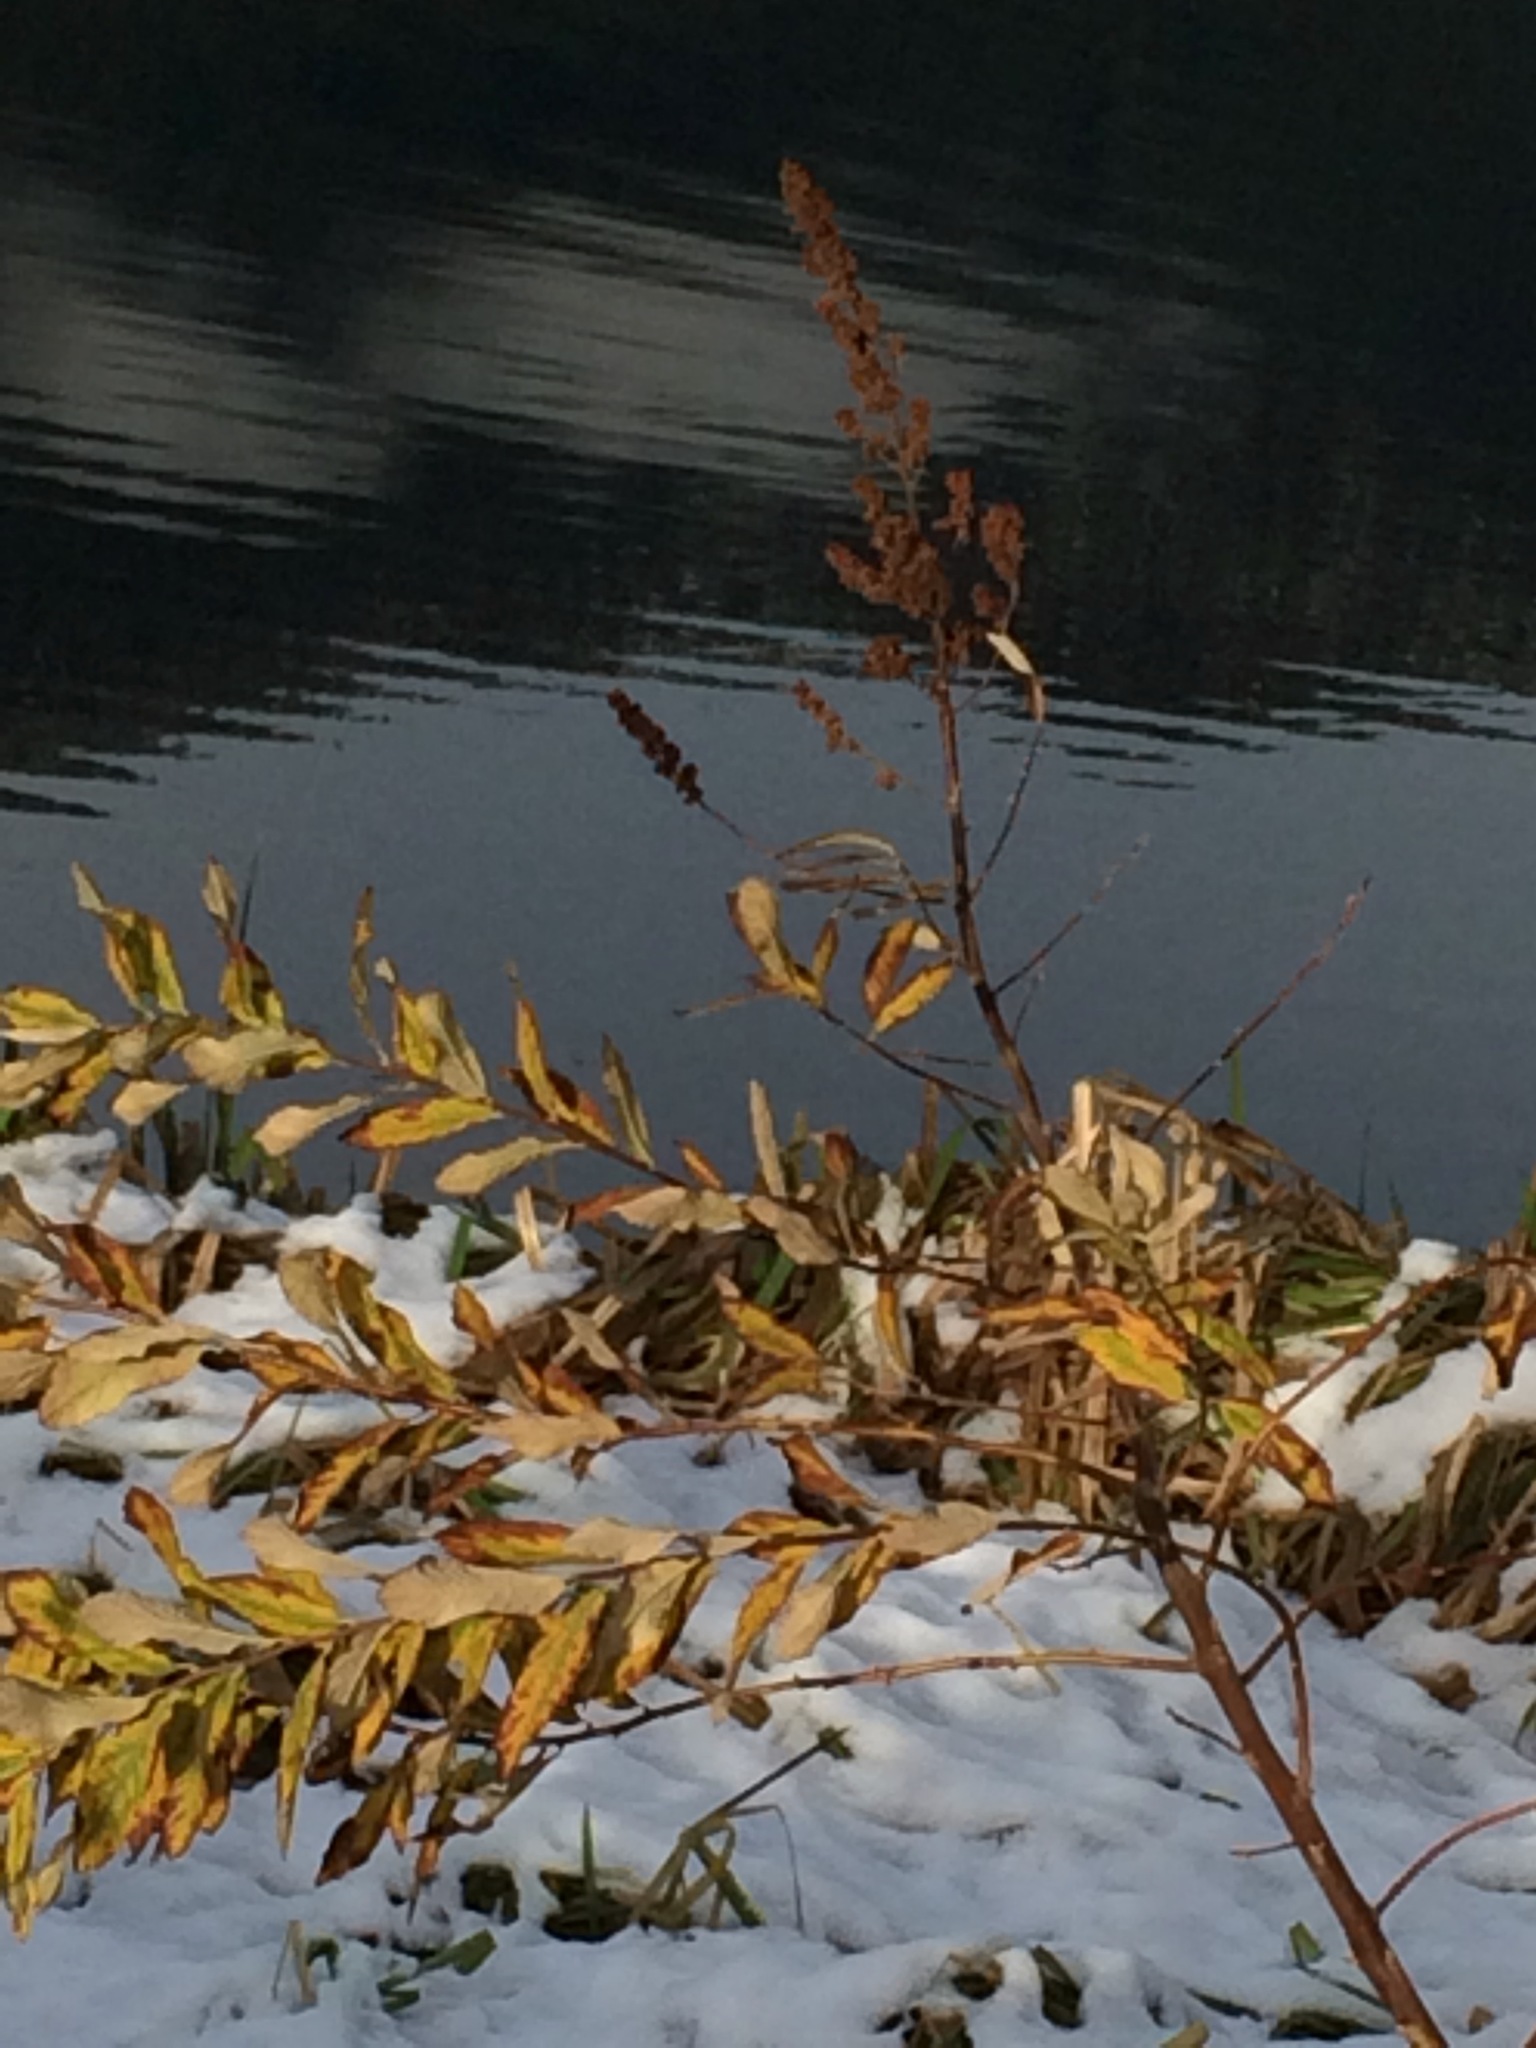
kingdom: Plantae
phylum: Tracheophyta
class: Magnoliopsida
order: Rosales
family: Rosaceae
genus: Spiraea
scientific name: Spiraea douglasii
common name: Steeplebush
